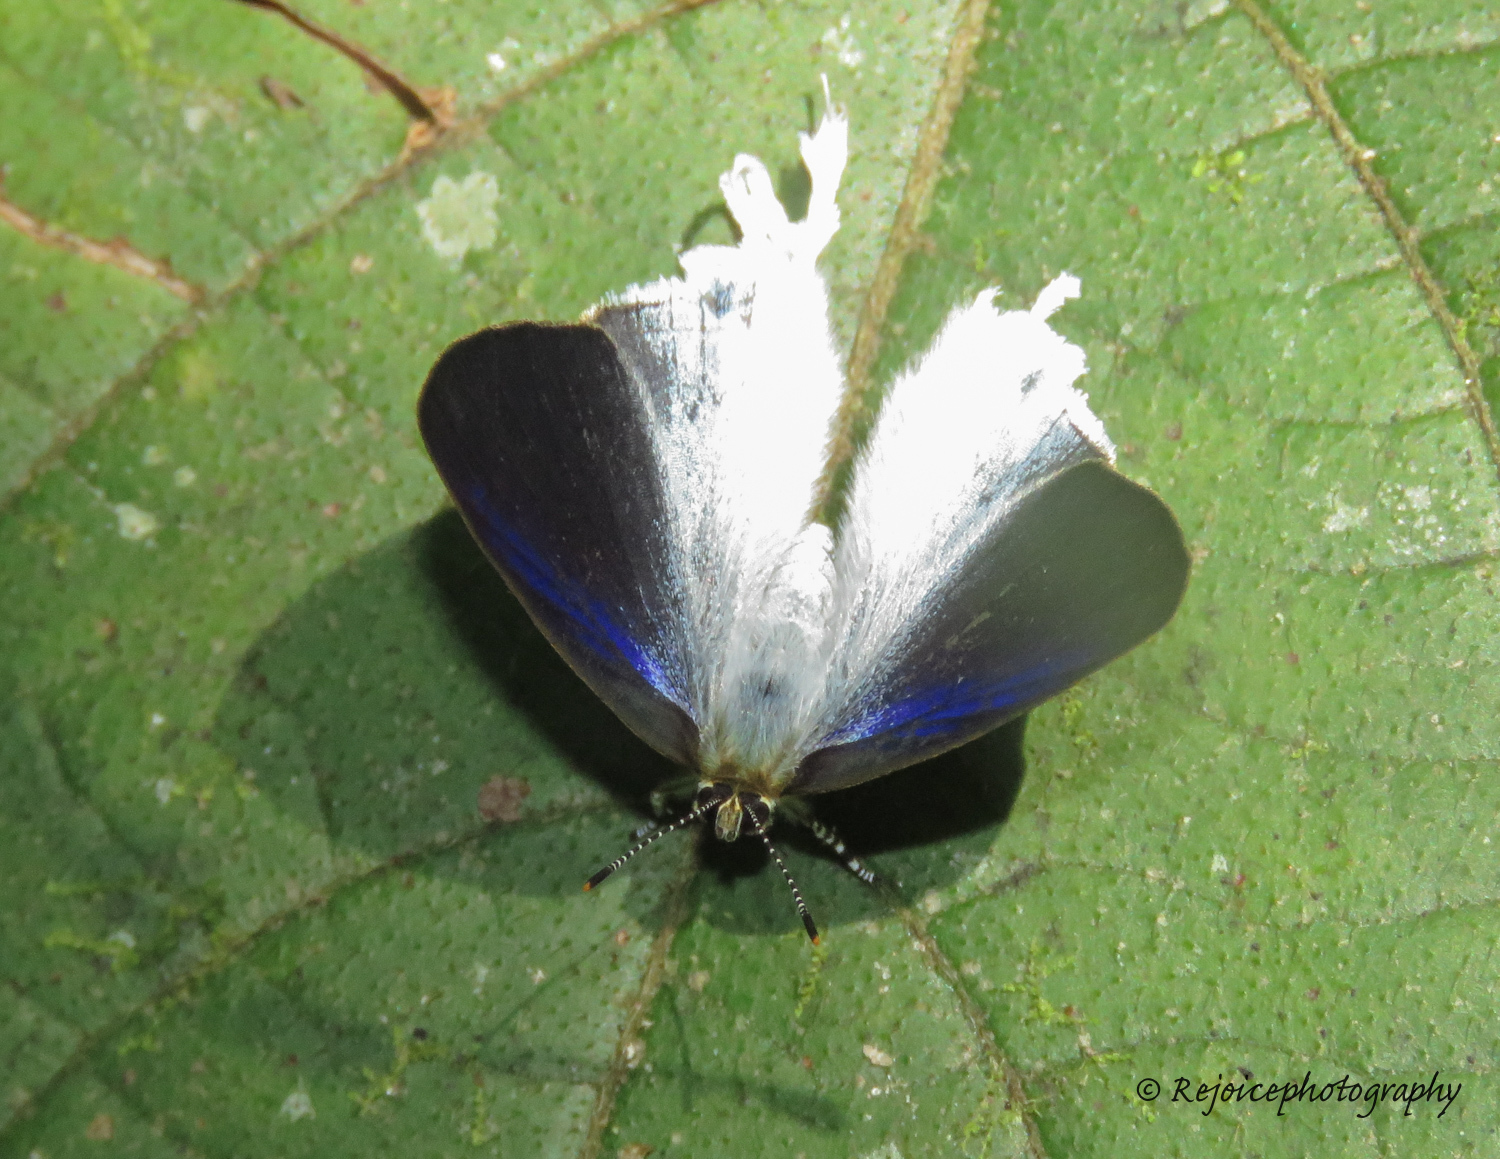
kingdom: Animalia
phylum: Arthropoda
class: Insecta
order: Lepidoptera
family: Lycaenidae
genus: Zeltus
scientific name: Zeltus amasa
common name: Fluffy tit
